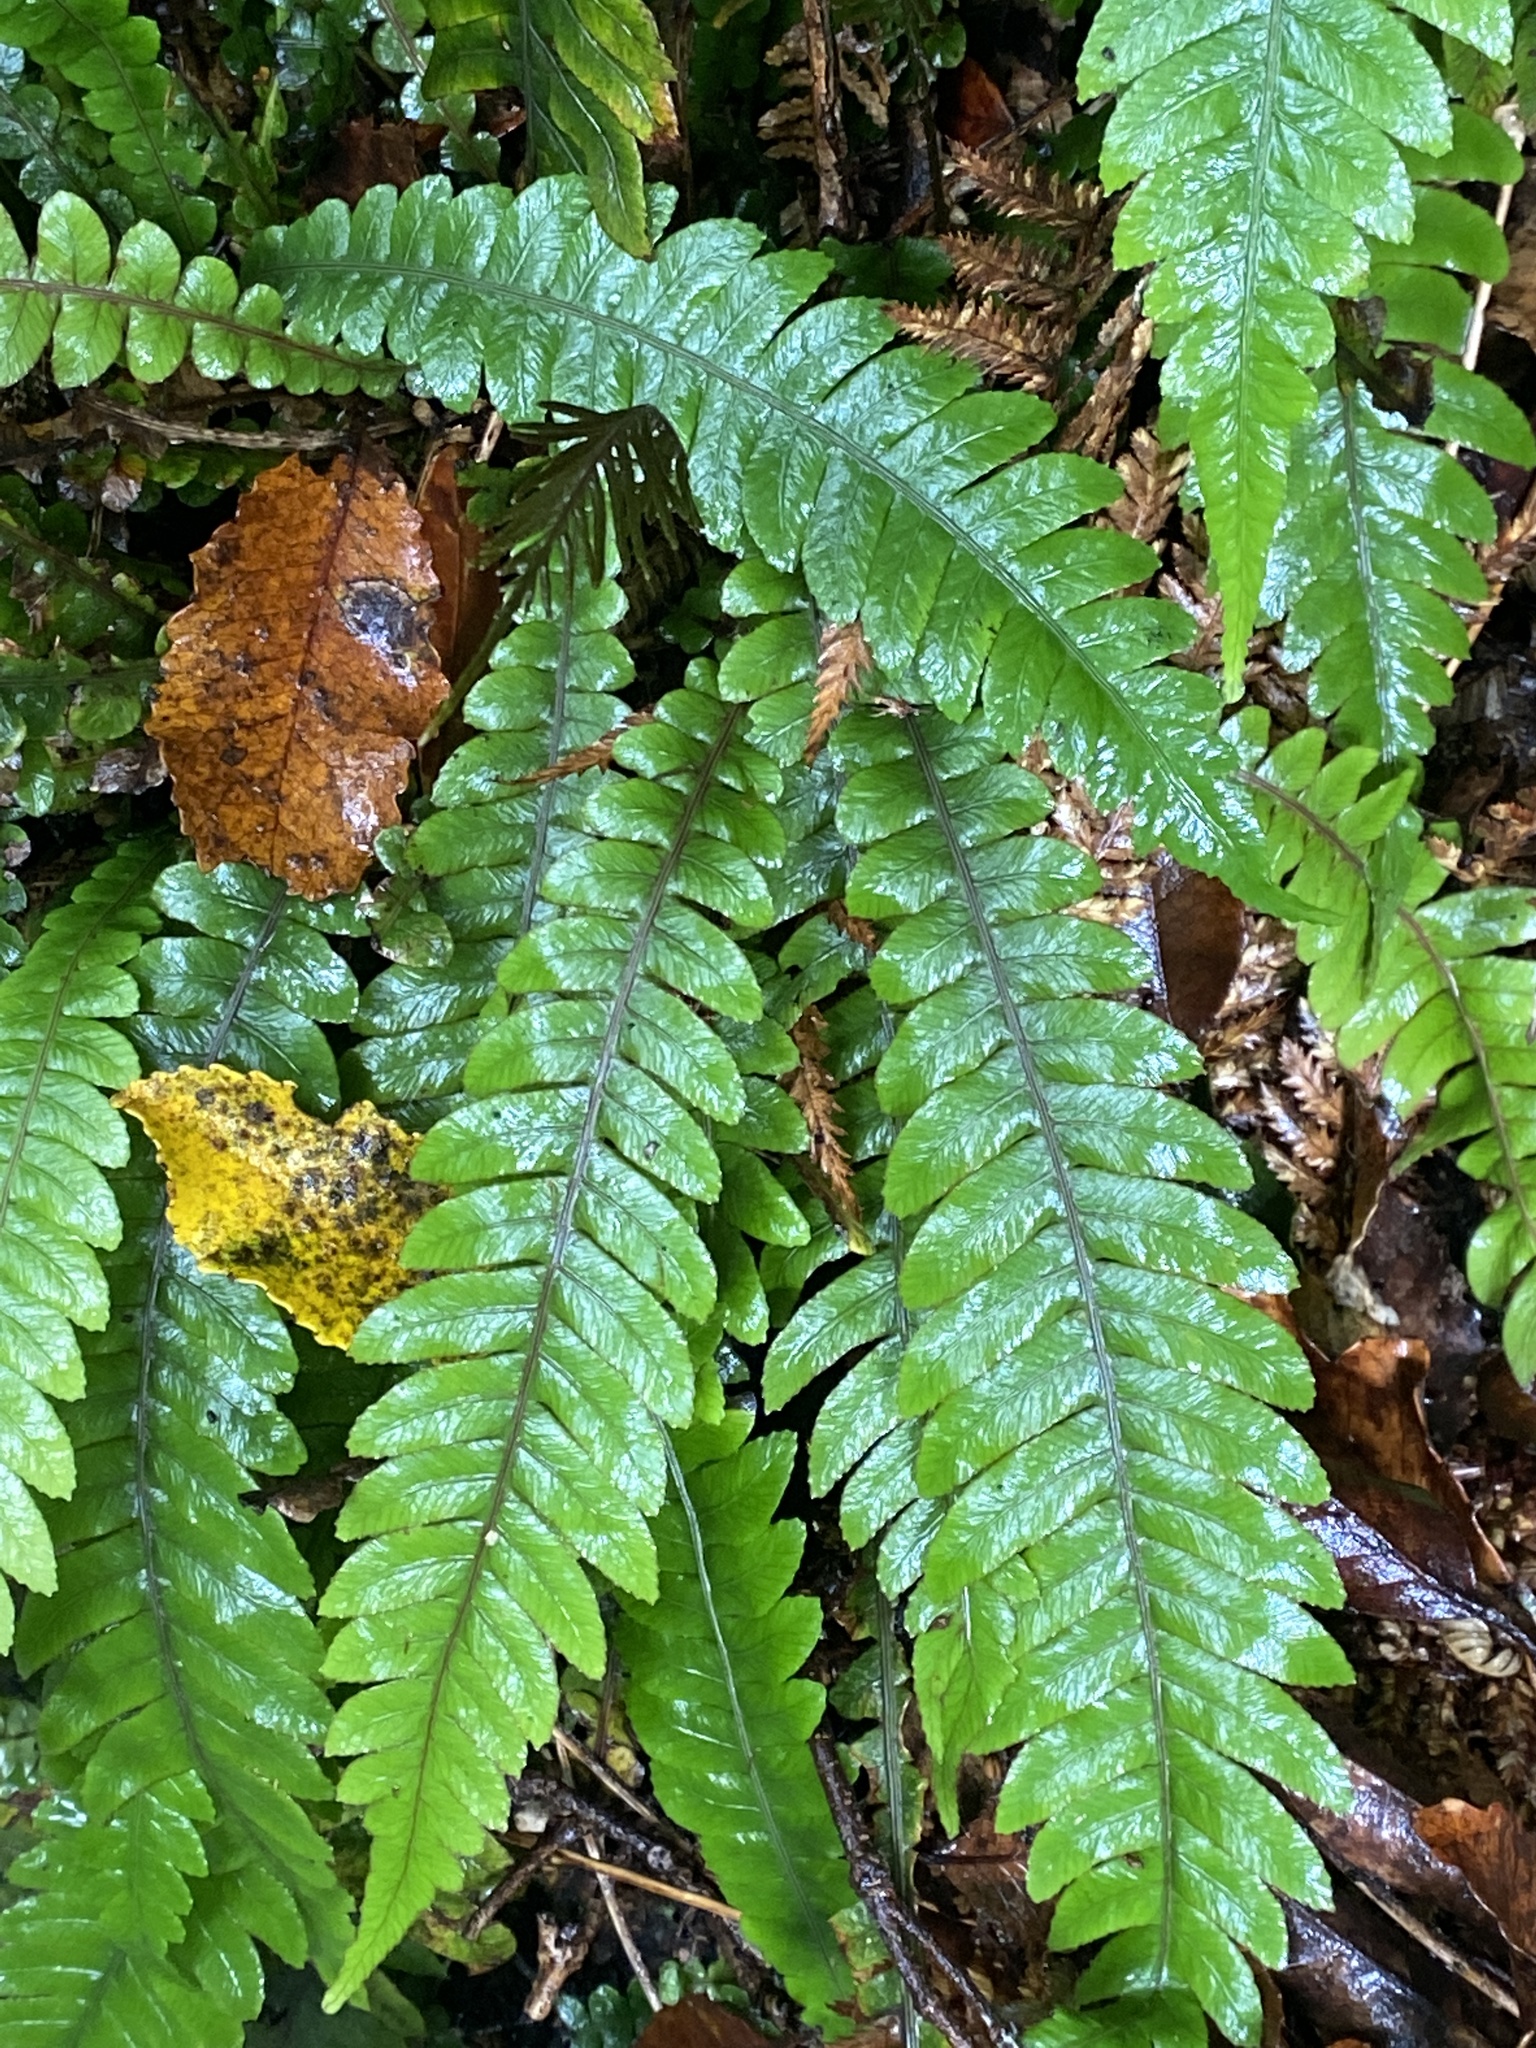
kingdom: Plantae
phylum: Tracheophyta
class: Polypodiopsida
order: Polypodiales
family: Blechnaceae
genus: Austroblechnum
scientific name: Austroblechnum lanceolatum
